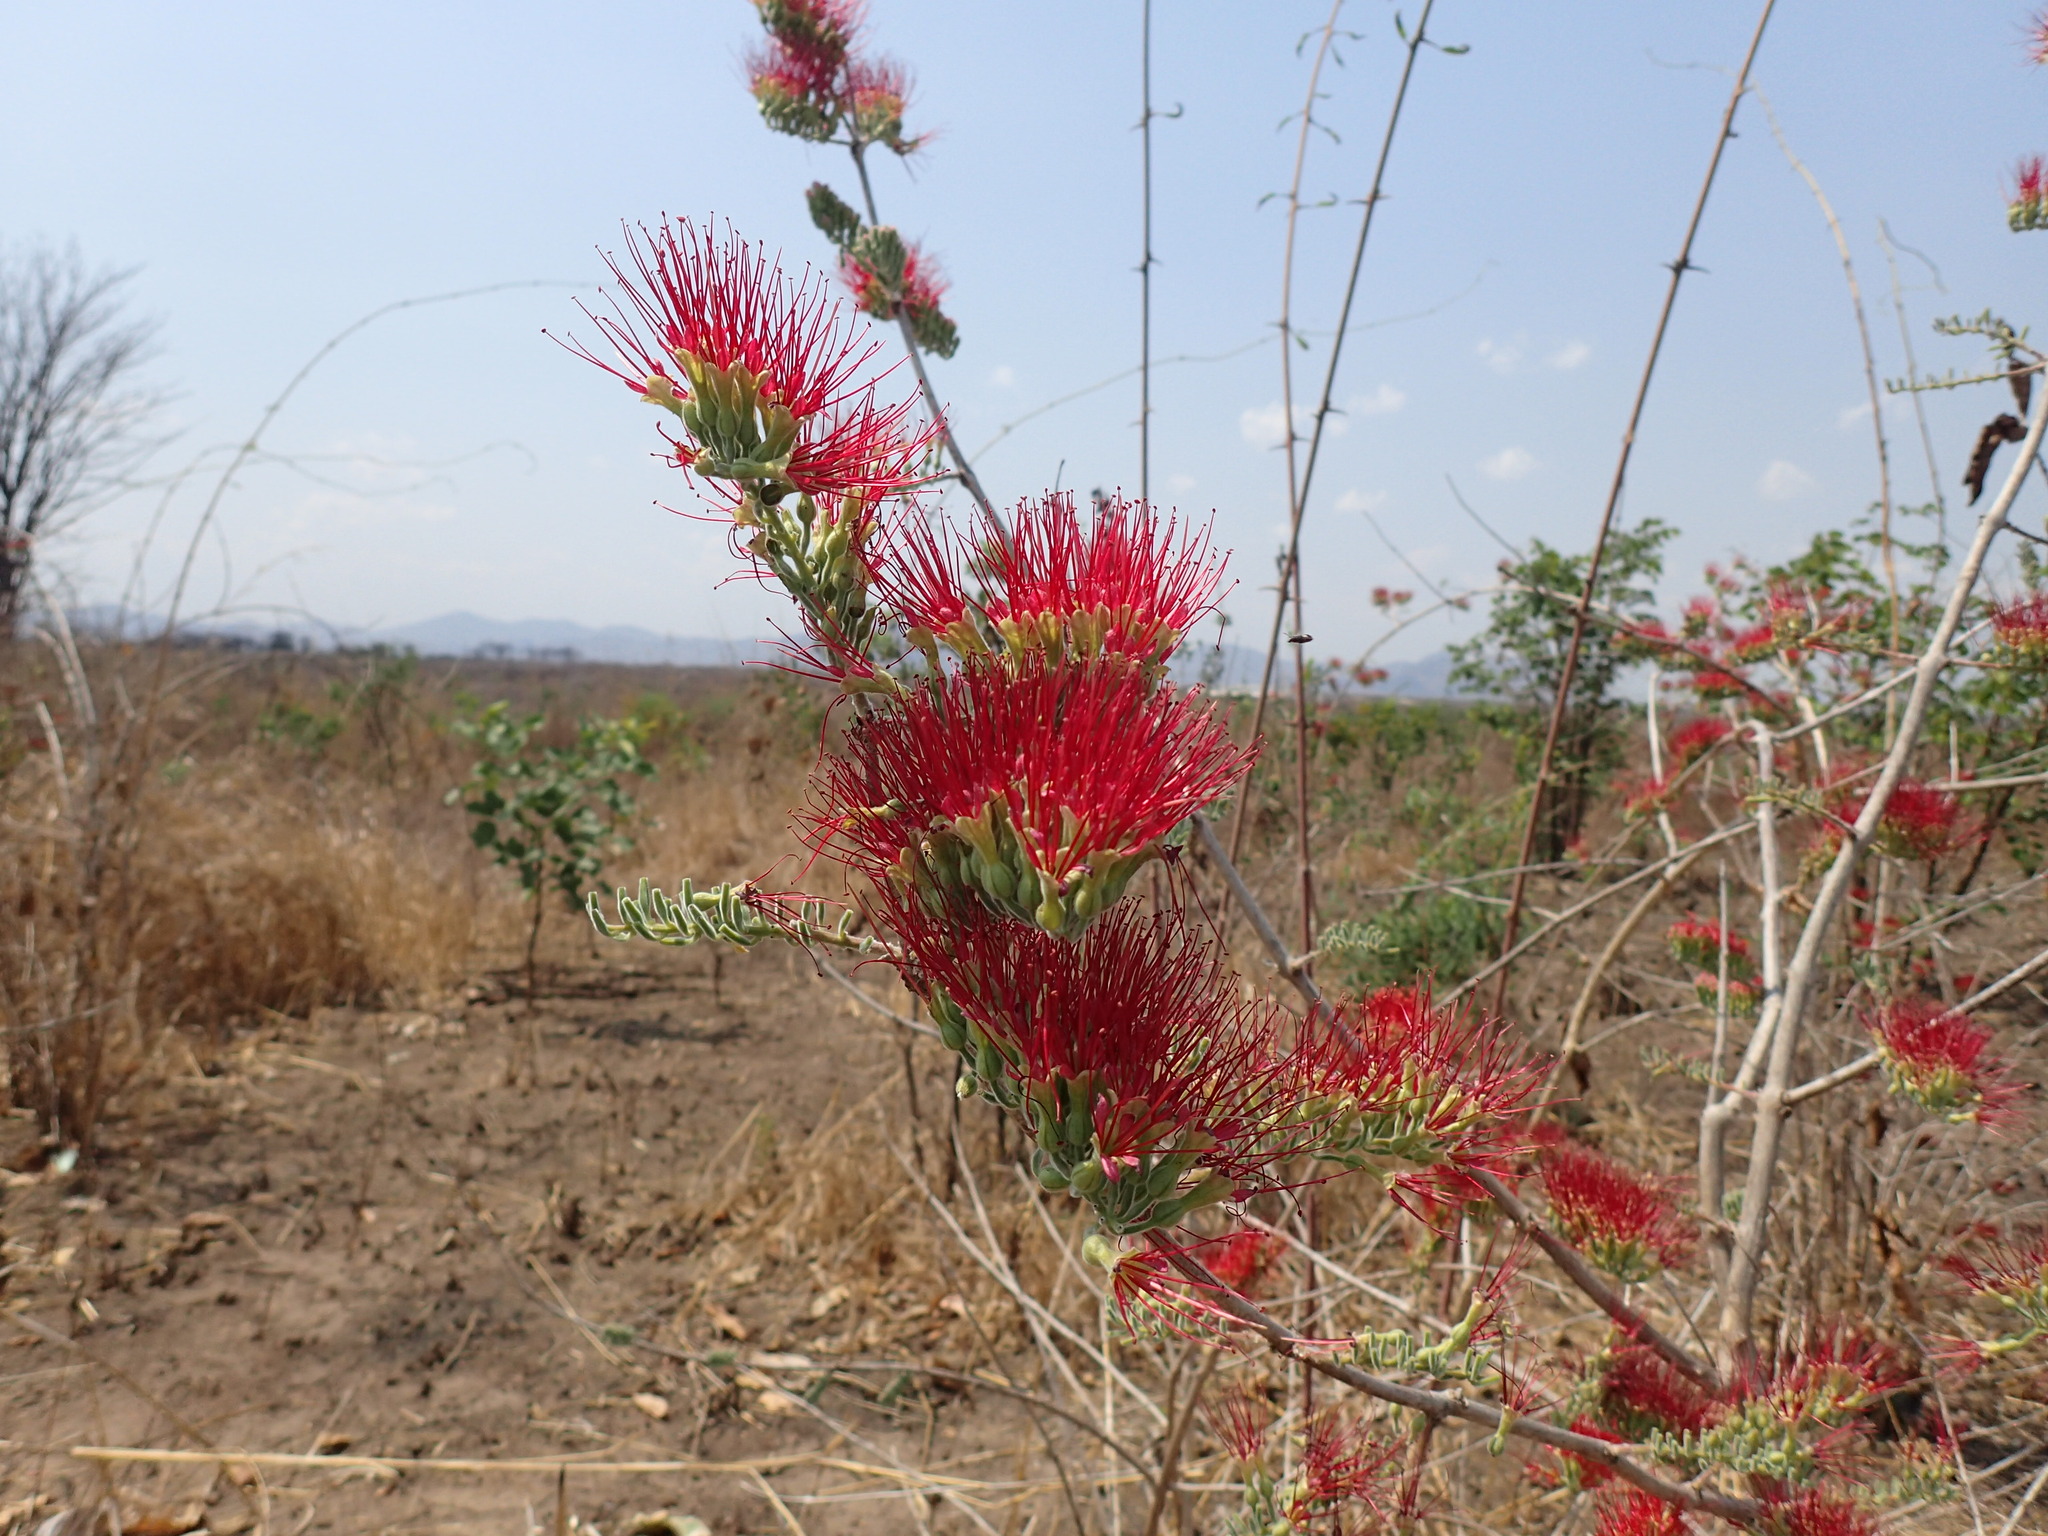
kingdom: Plantae
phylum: Tracheophyta
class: Magnoliopsida
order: Myrtales
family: Combretaceae
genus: Combretum
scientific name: Combretum microphyllum
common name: Burningbush
